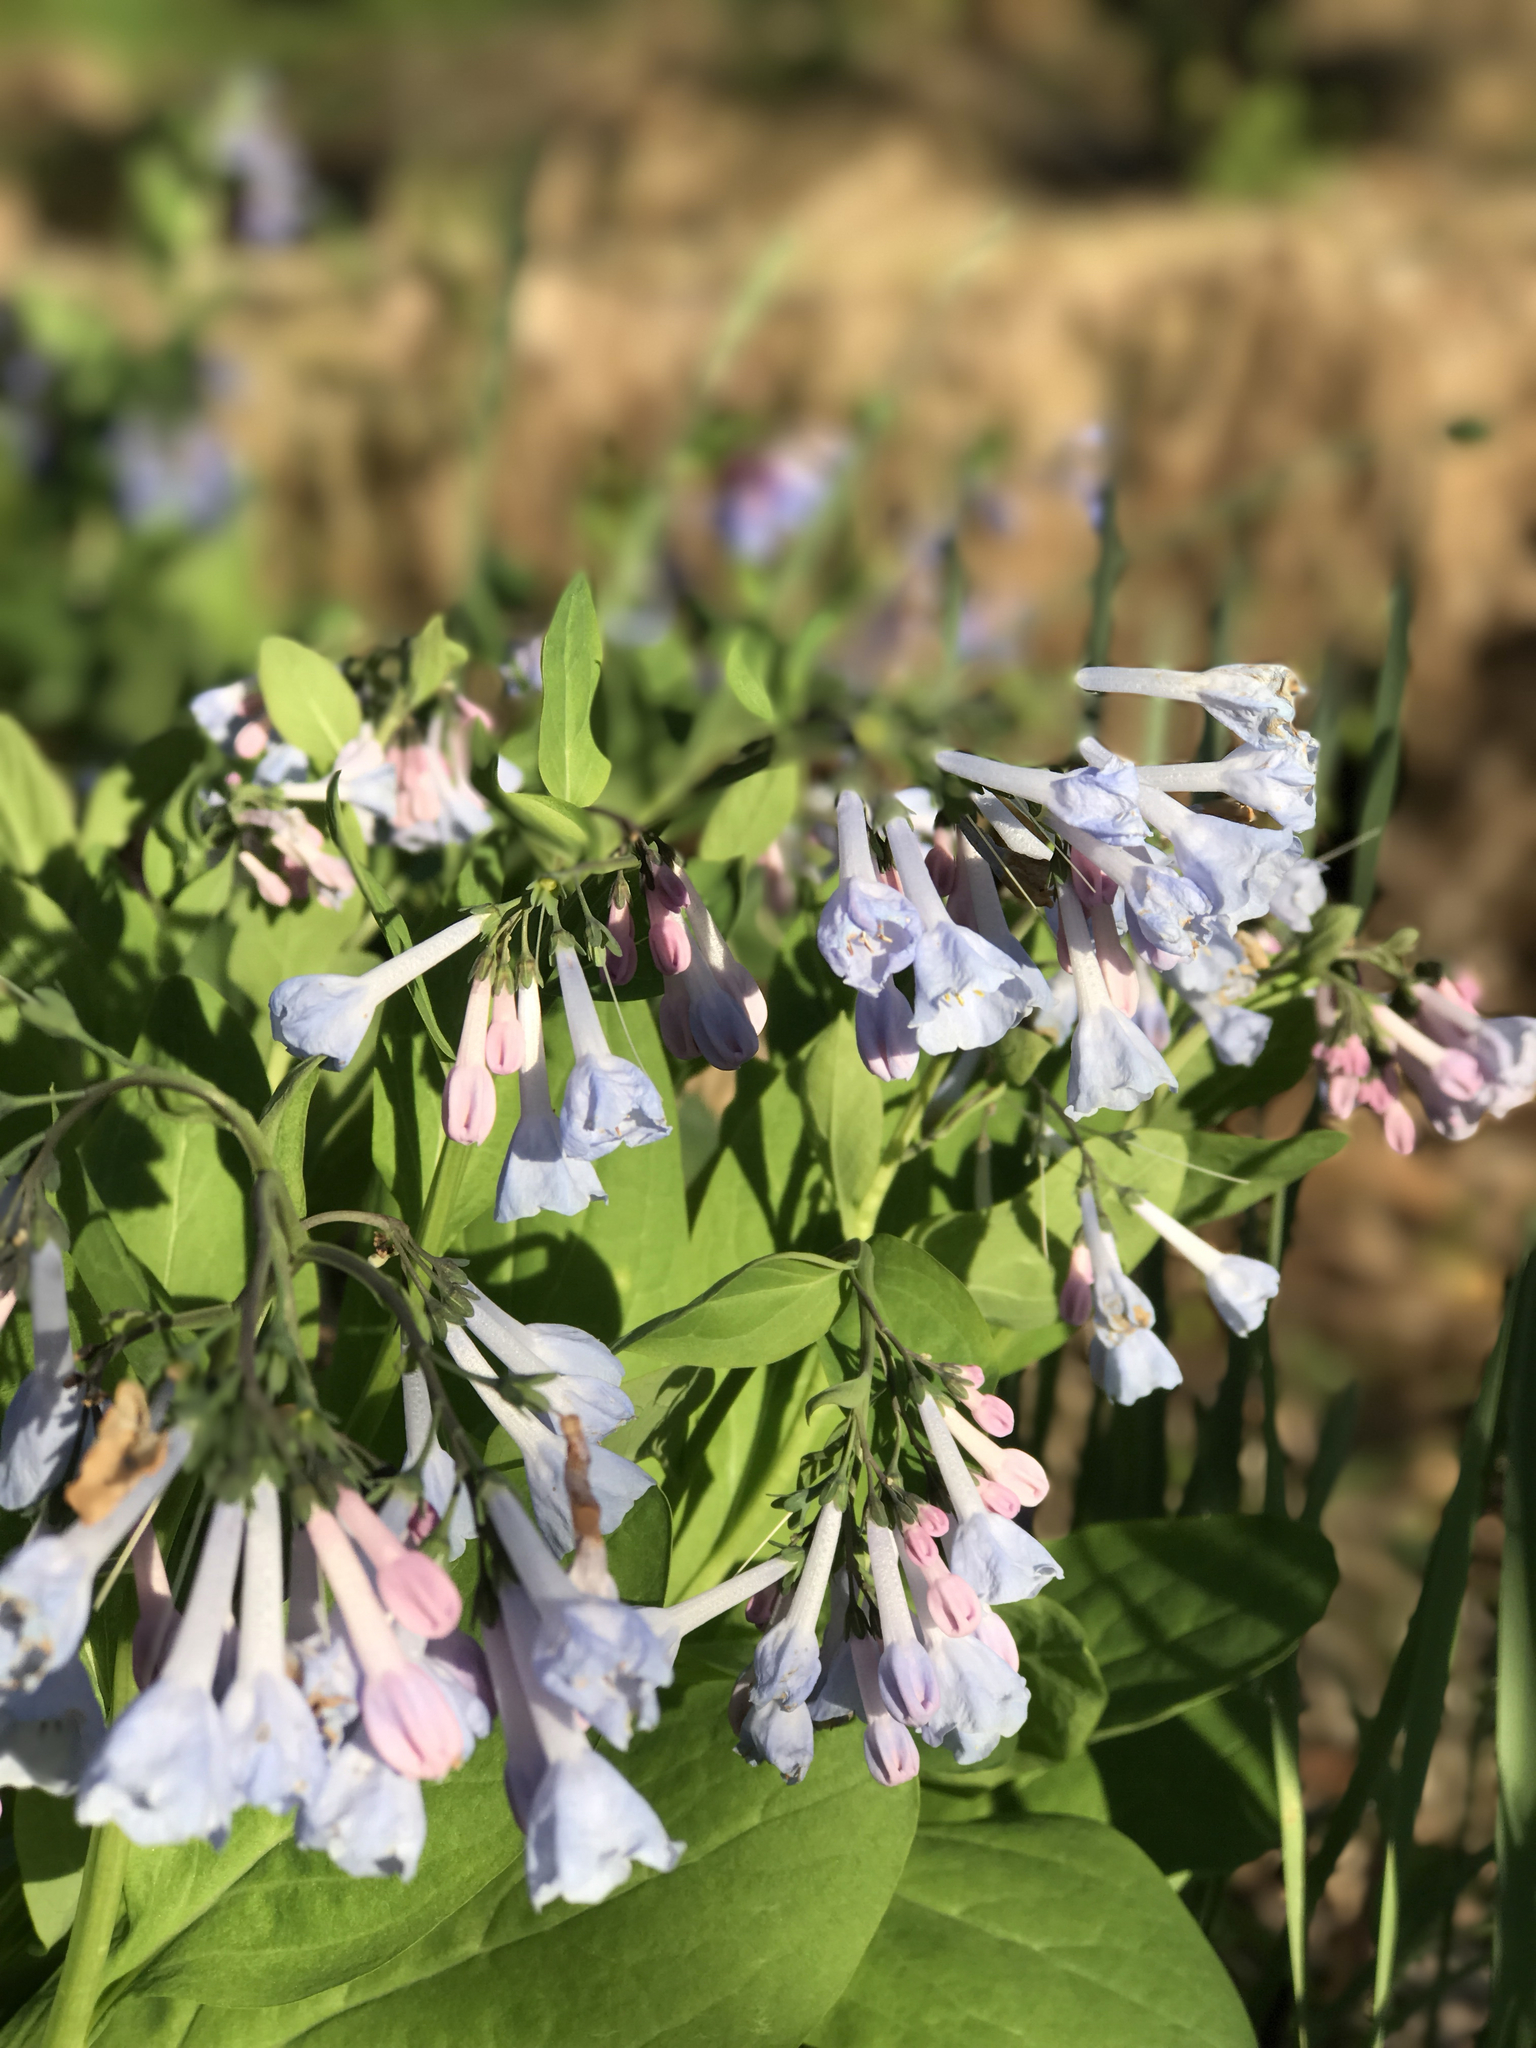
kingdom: Plantae
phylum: Tracheophyta
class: Magnoliopsida
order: Boraginales
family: Boraginaceae
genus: Mertensia
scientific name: Mertensia virginica
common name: Virginia bluebells
